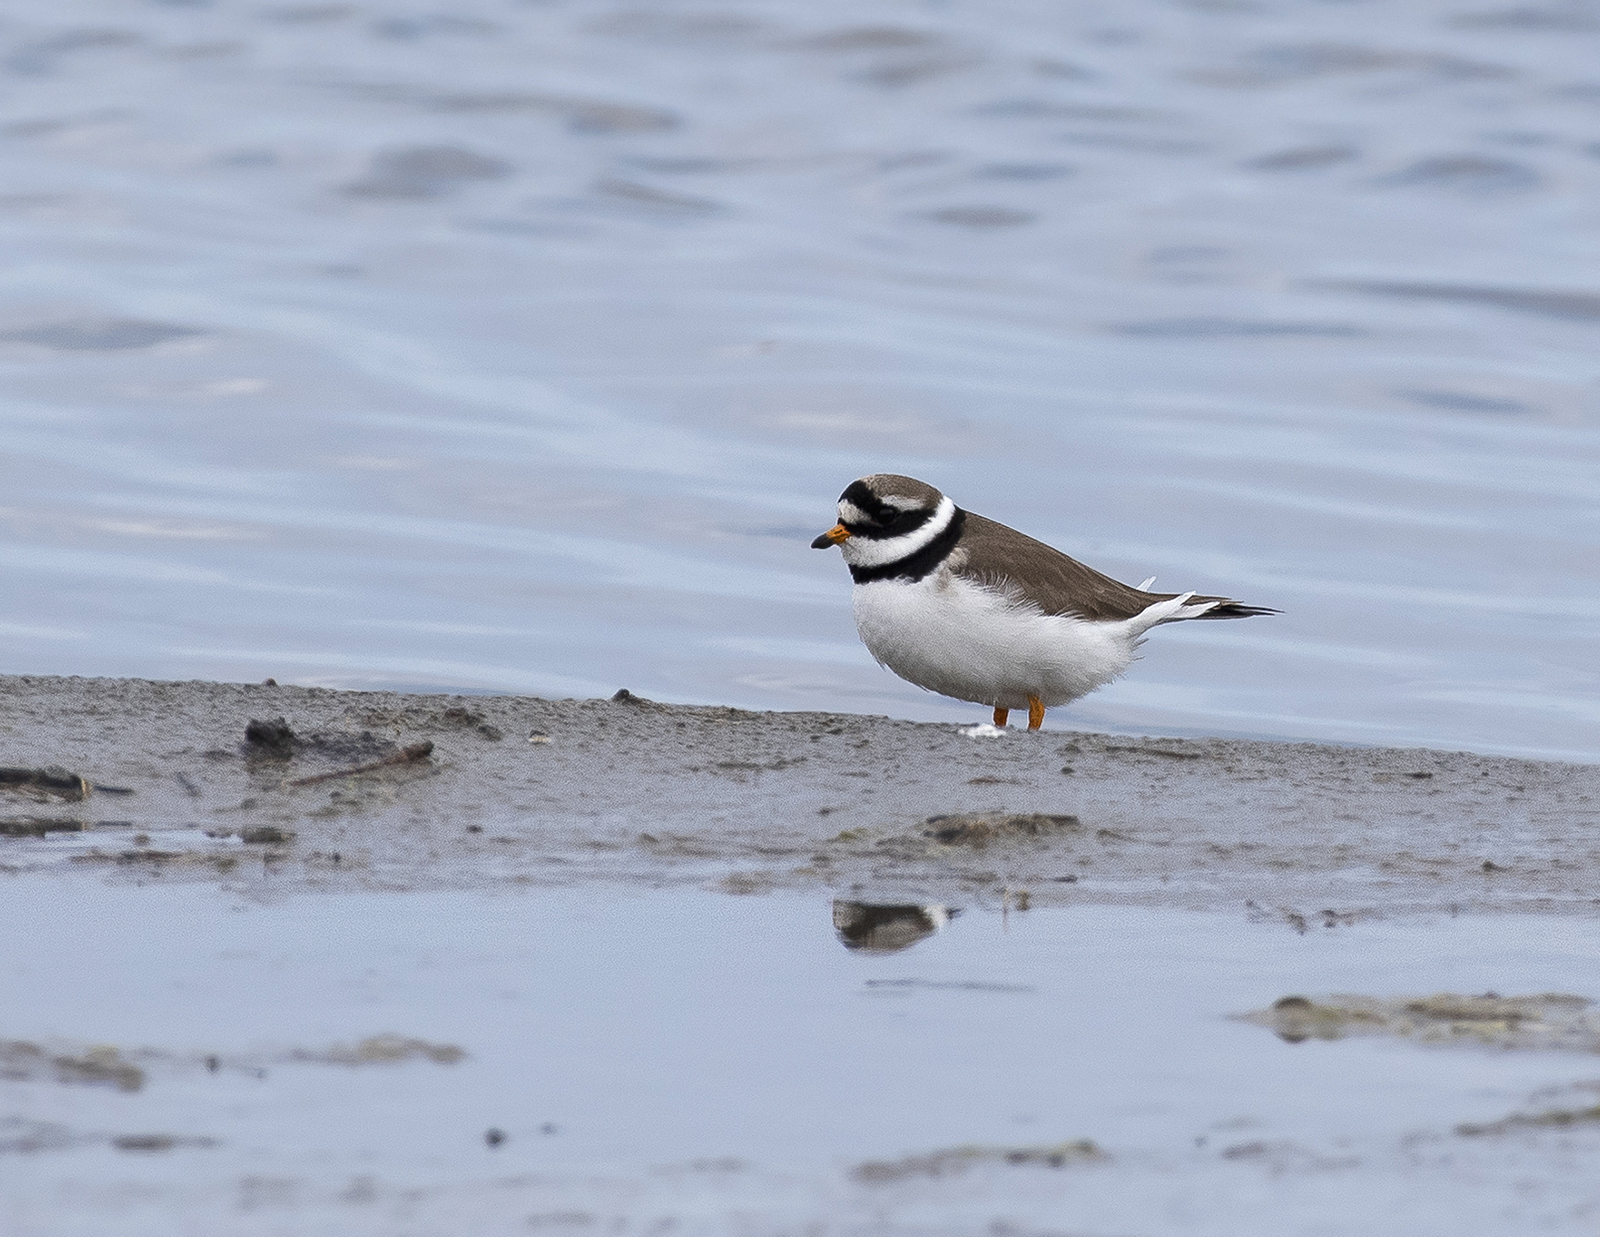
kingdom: Animalia
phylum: Chordata
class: Aves
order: Charadriiformes
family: Charadriidae
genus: Charadrius
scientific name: Charadrius hiaticula
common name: Common ringed plover
